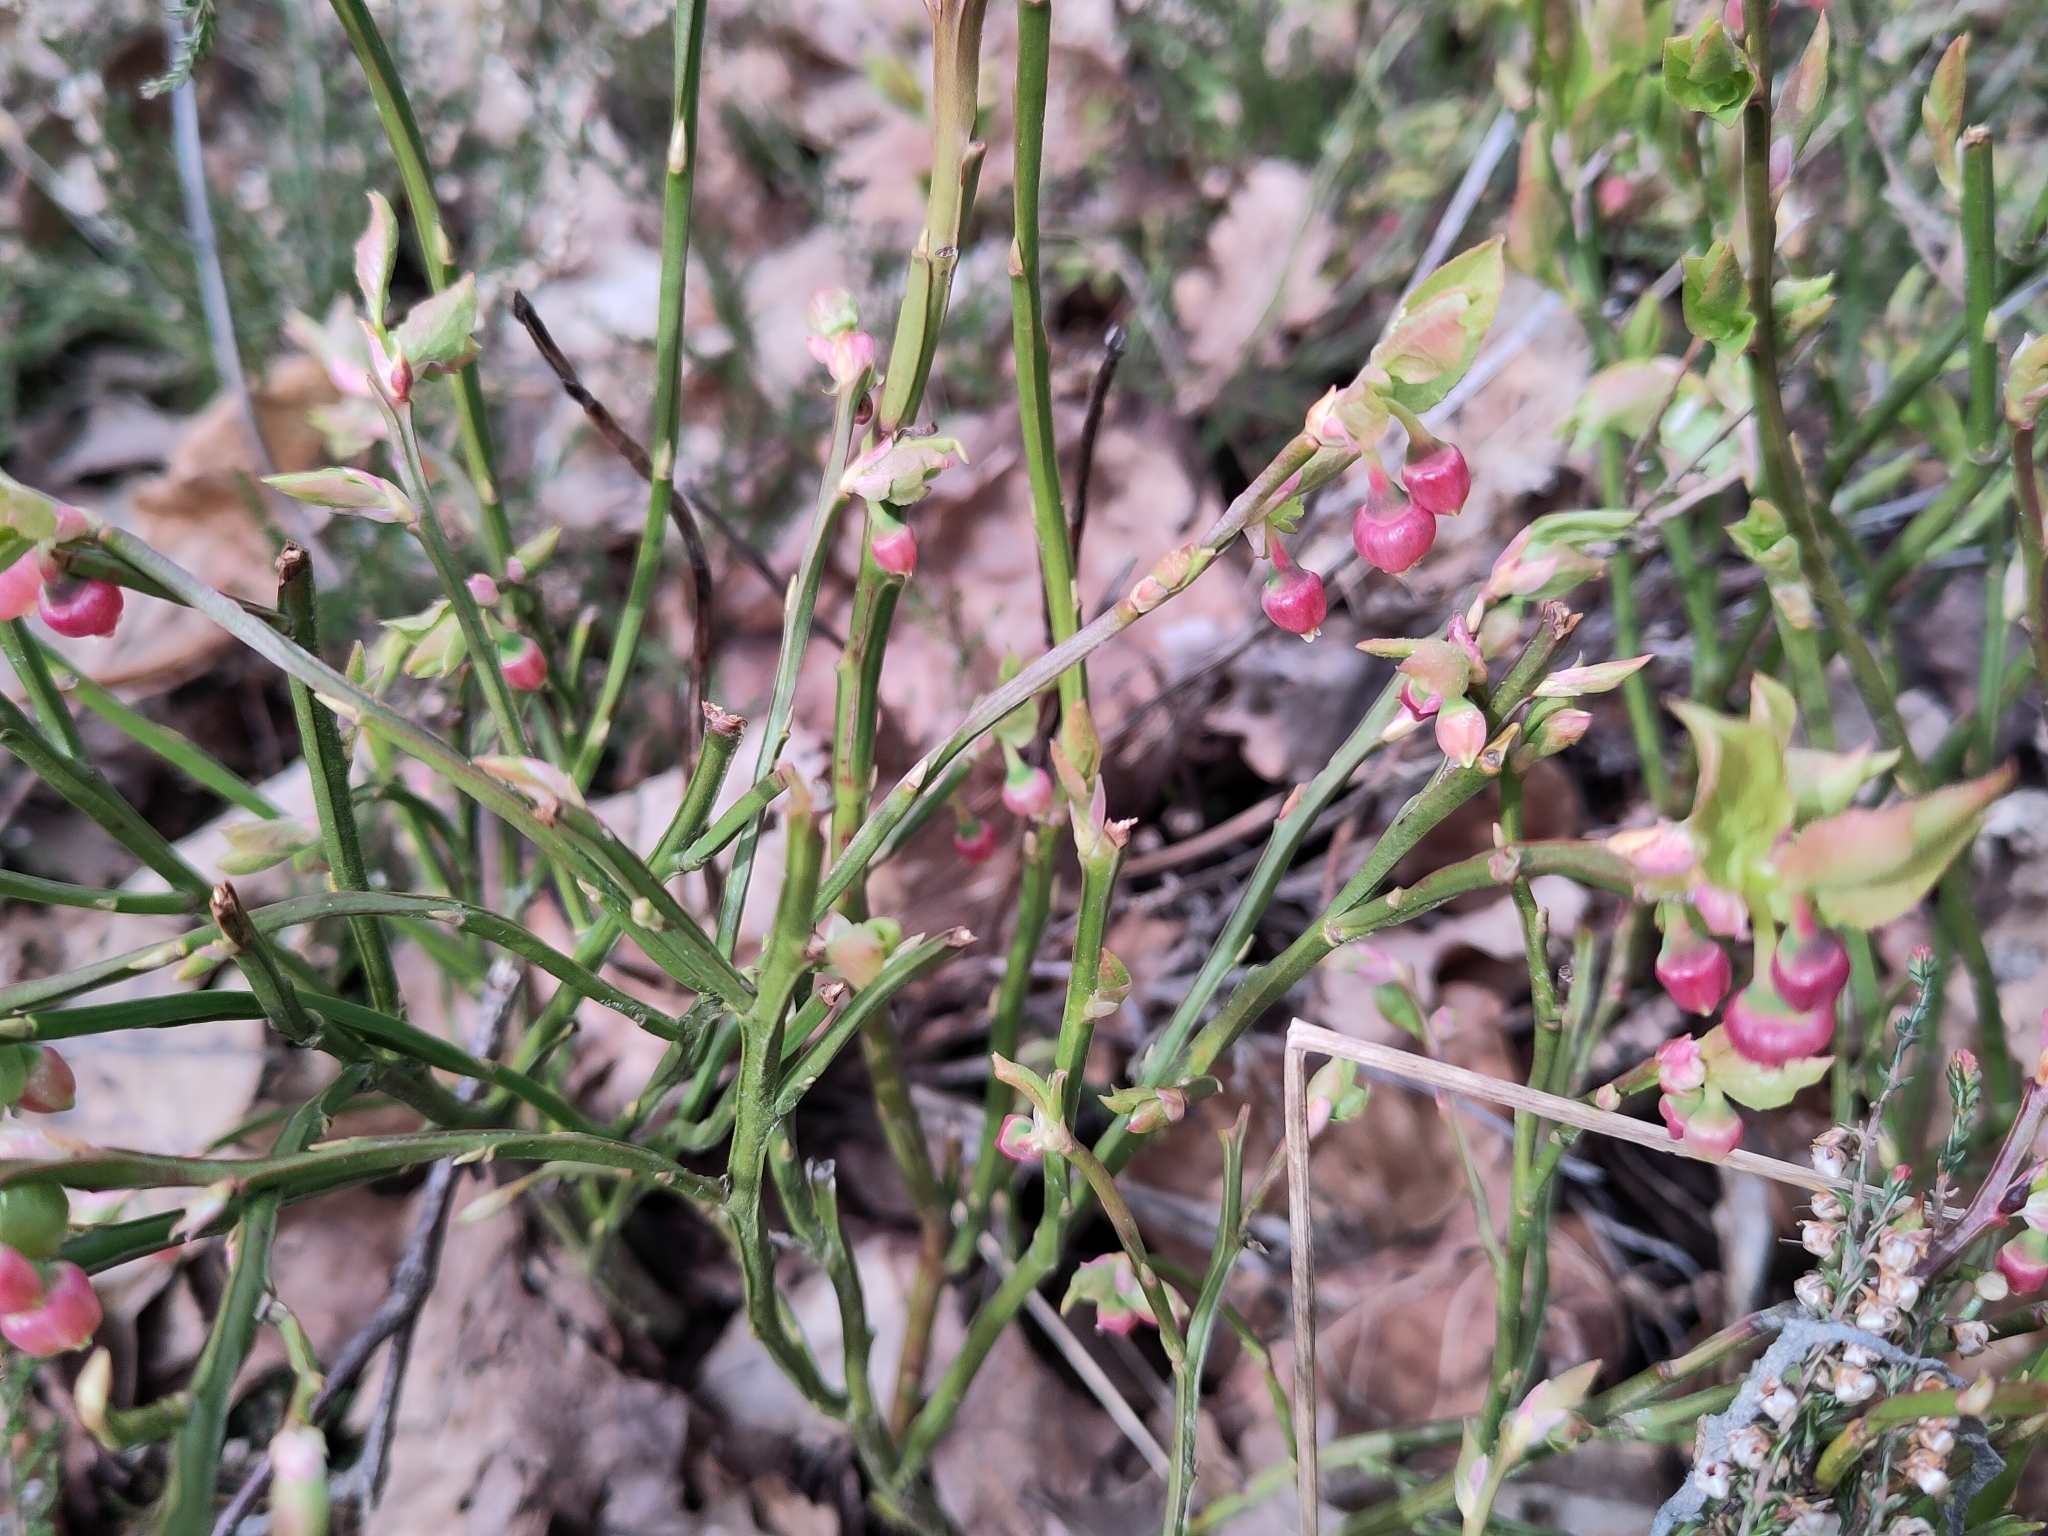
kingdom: Plantae
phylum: Tracheophyta
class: Magnoliopsida
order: Ericales
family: Ericaceae
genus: Vaccinium
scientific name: Vaccinium myrtillus
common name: Bilberry
